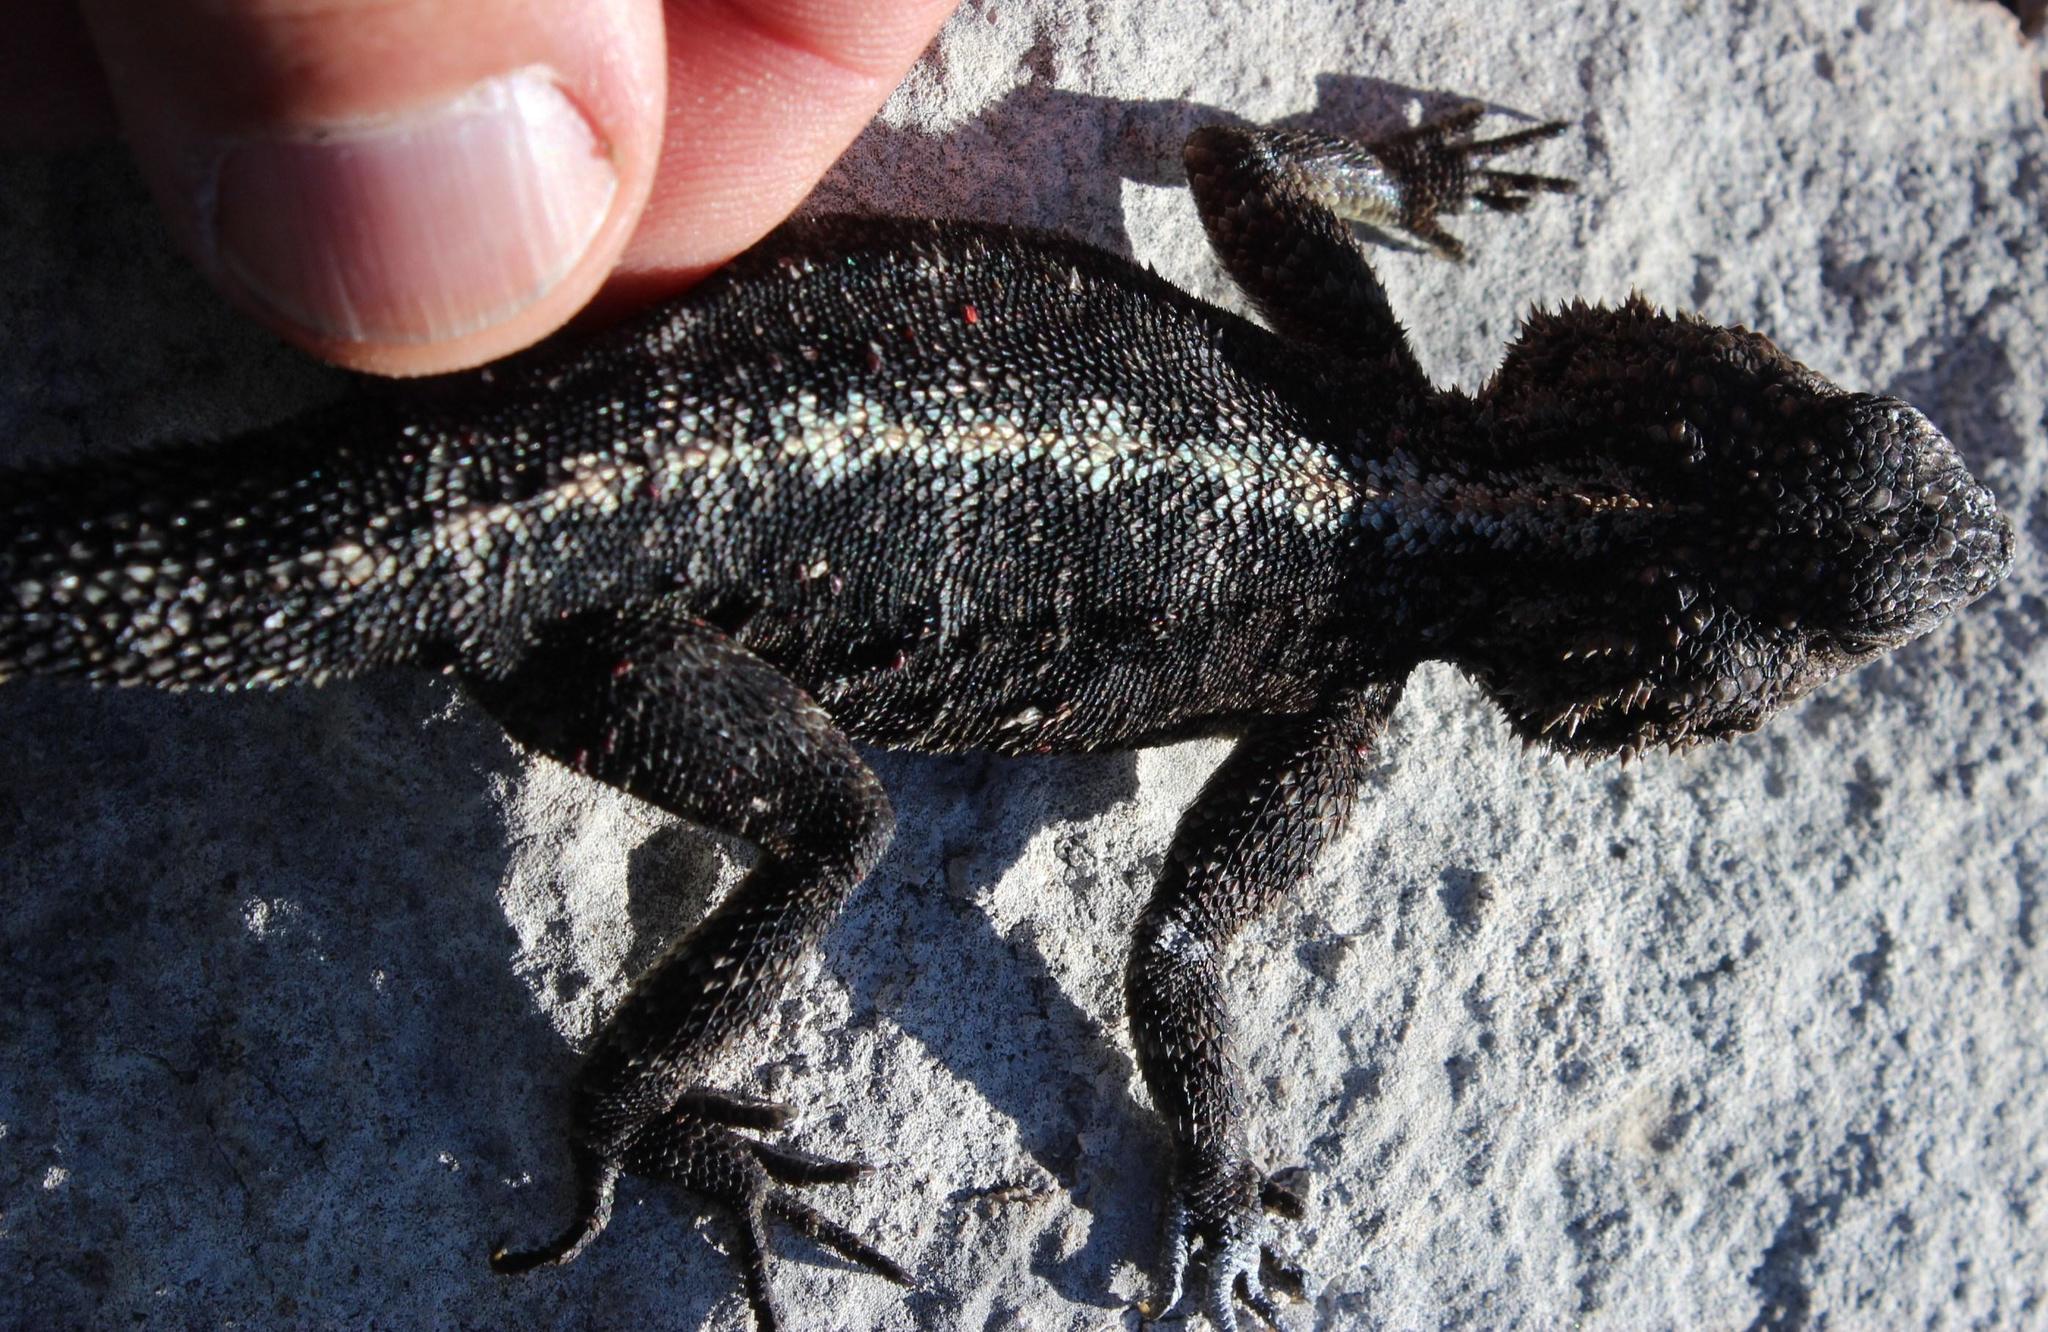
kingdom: Animalia
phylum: Chordata
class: Squamata
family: Agamidae
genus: Agama
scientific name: Agama atra
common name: Southern african rock agama
